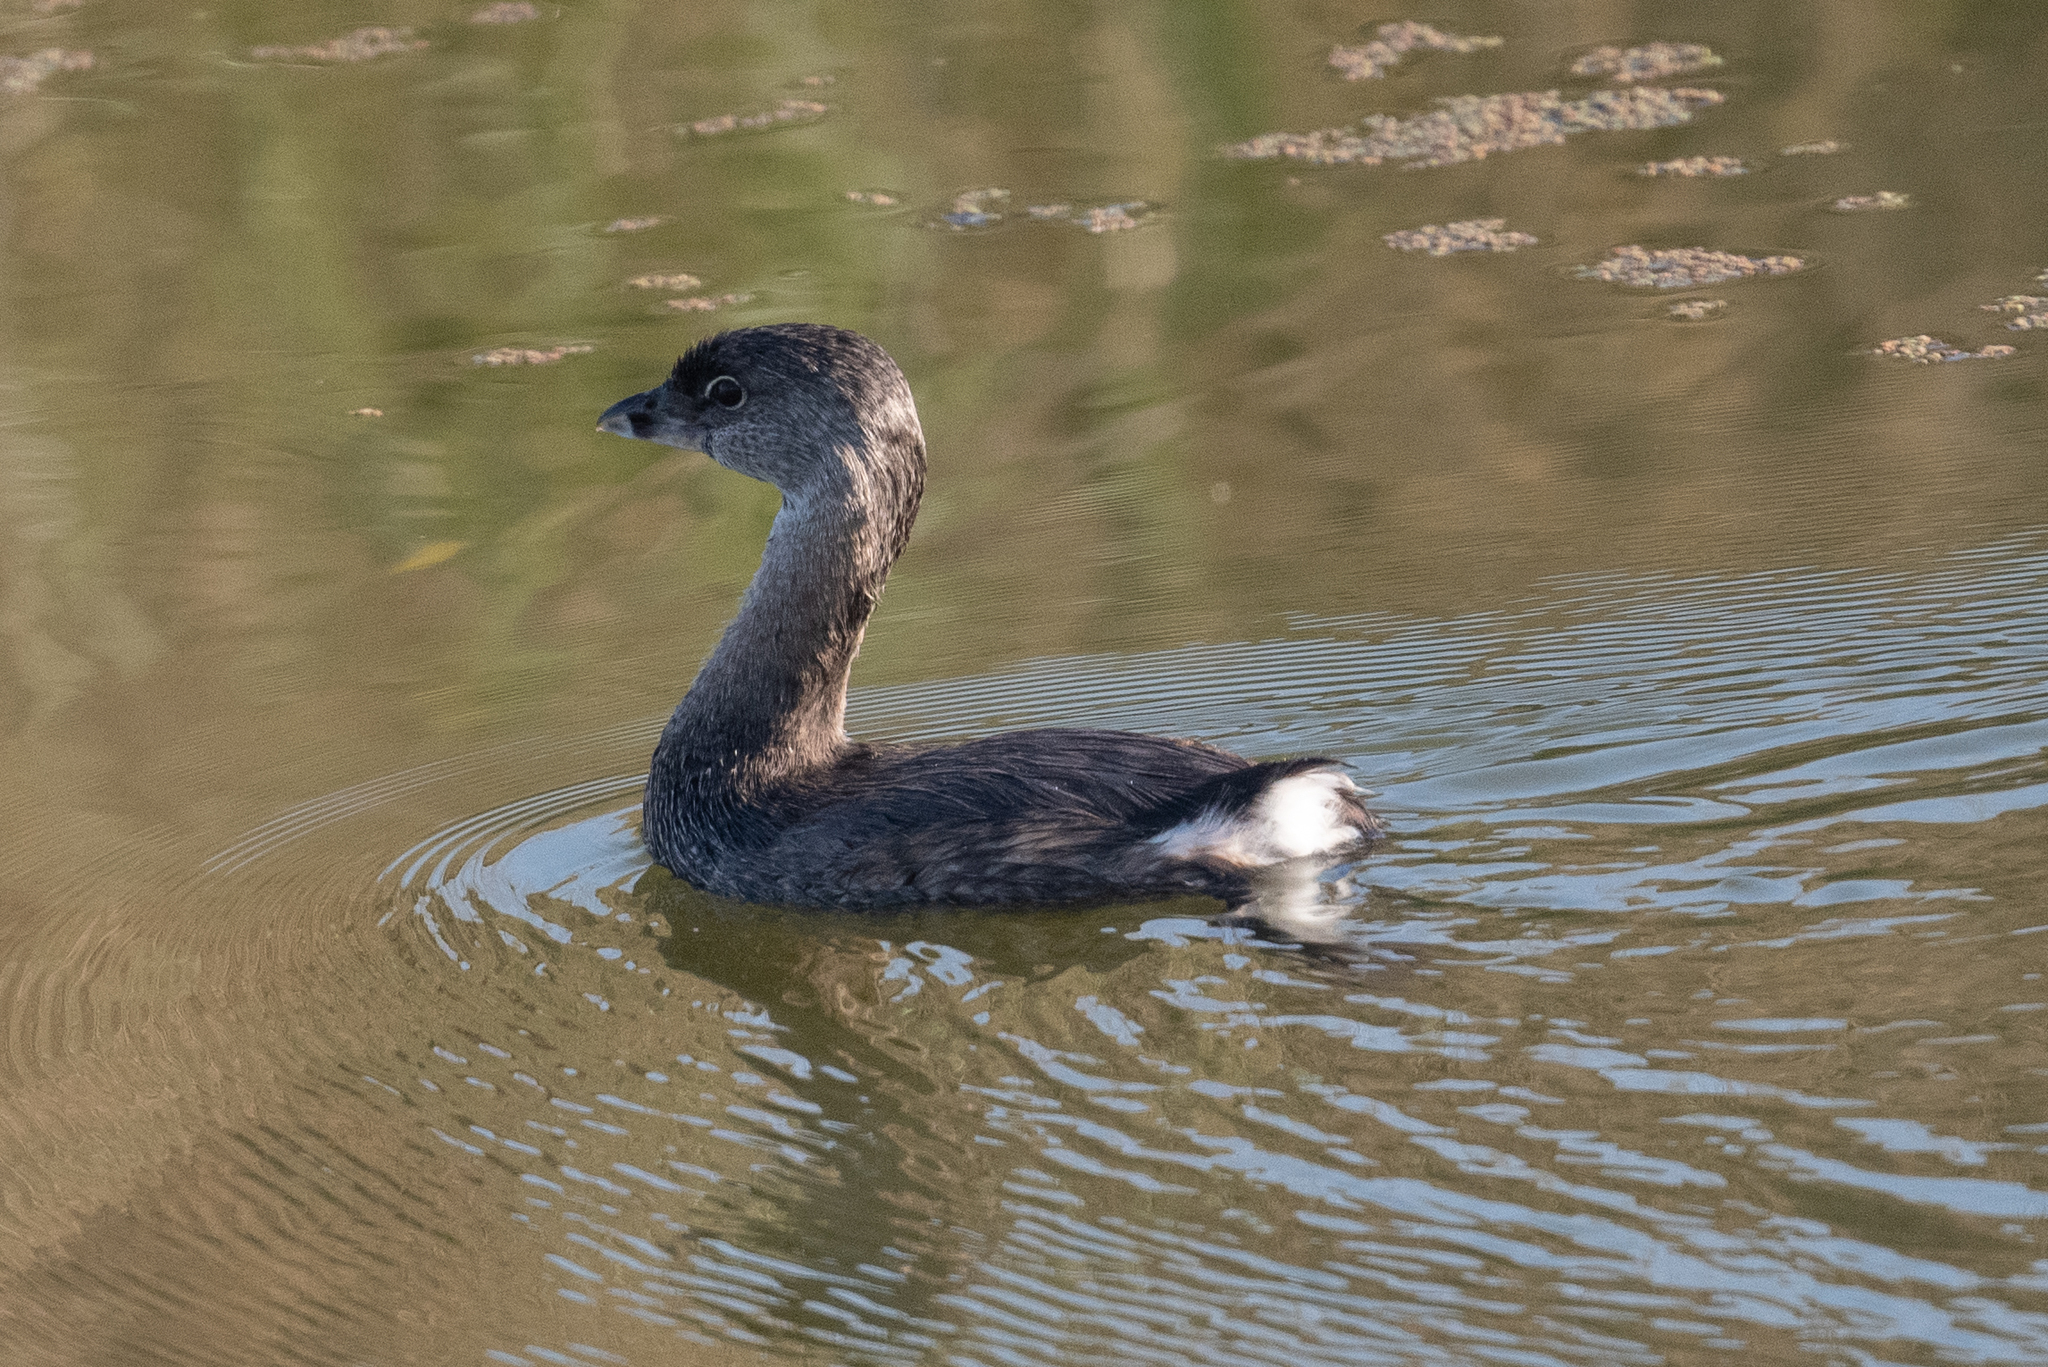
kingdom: Animalia
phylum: Chordata
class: Aves
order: Podicipediformes
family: Podicipedidae
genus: Podilymbus
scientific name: Podilymbus podiceps
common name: Pied-billed grebe
